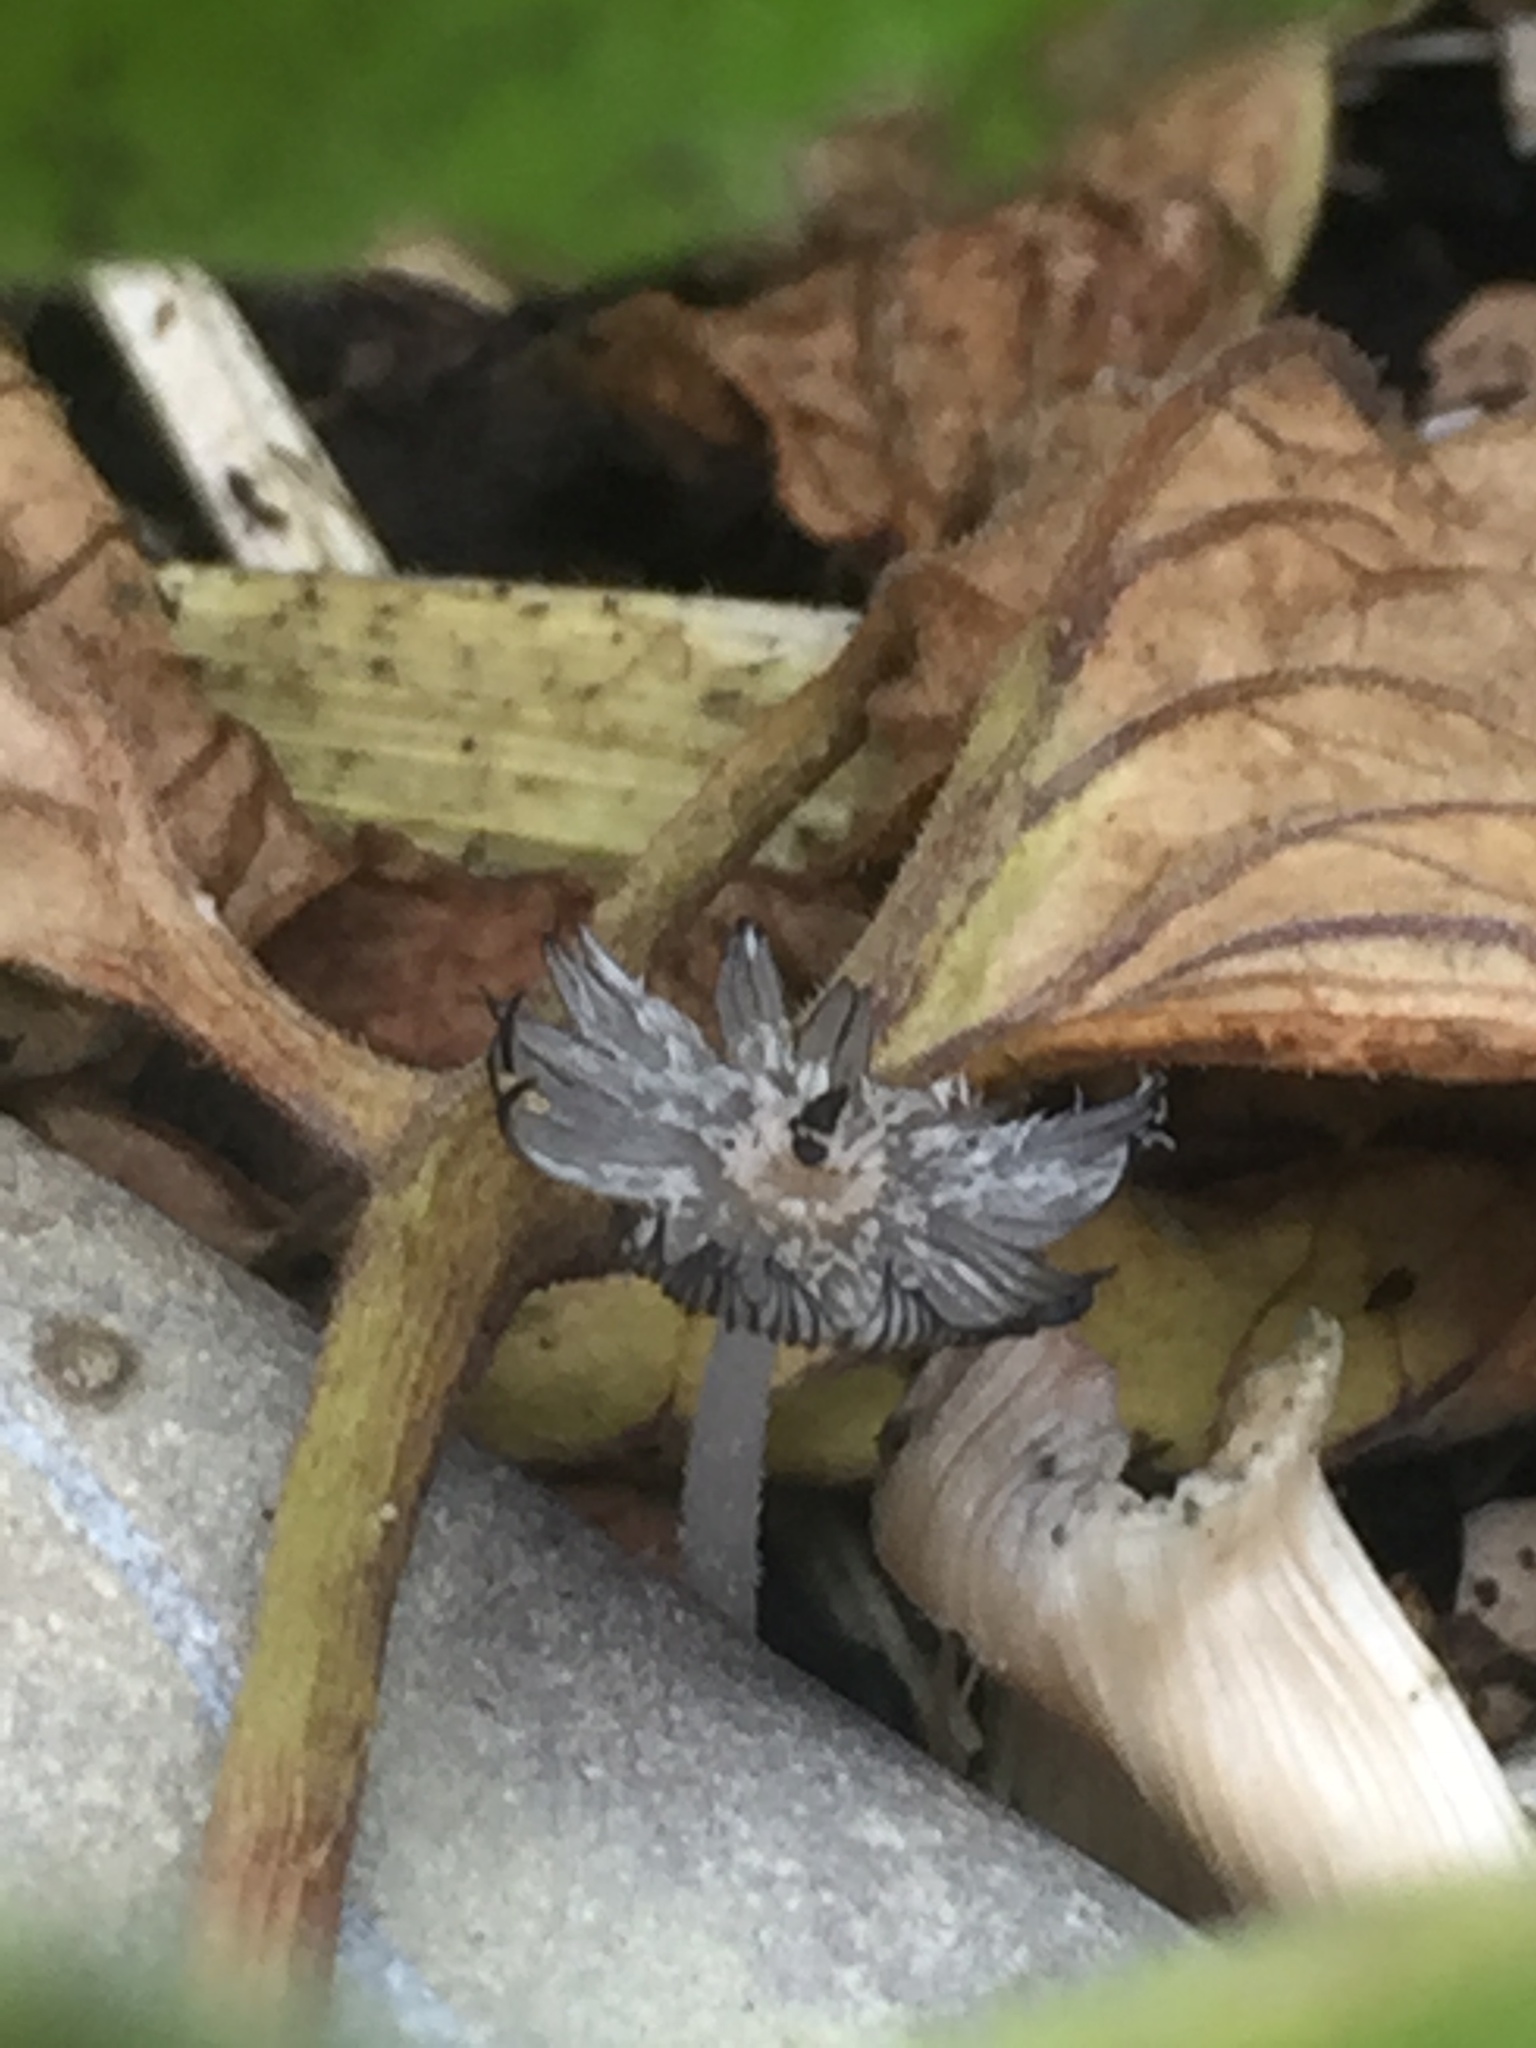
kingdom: Fungi
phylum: Basidiomycota
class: Agaricomycetes
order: Agaricales
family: Psathyrellaceae
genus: Coprinopsis
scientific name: Coprinopsis lagopus
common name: Hare'sfoot inkcap
